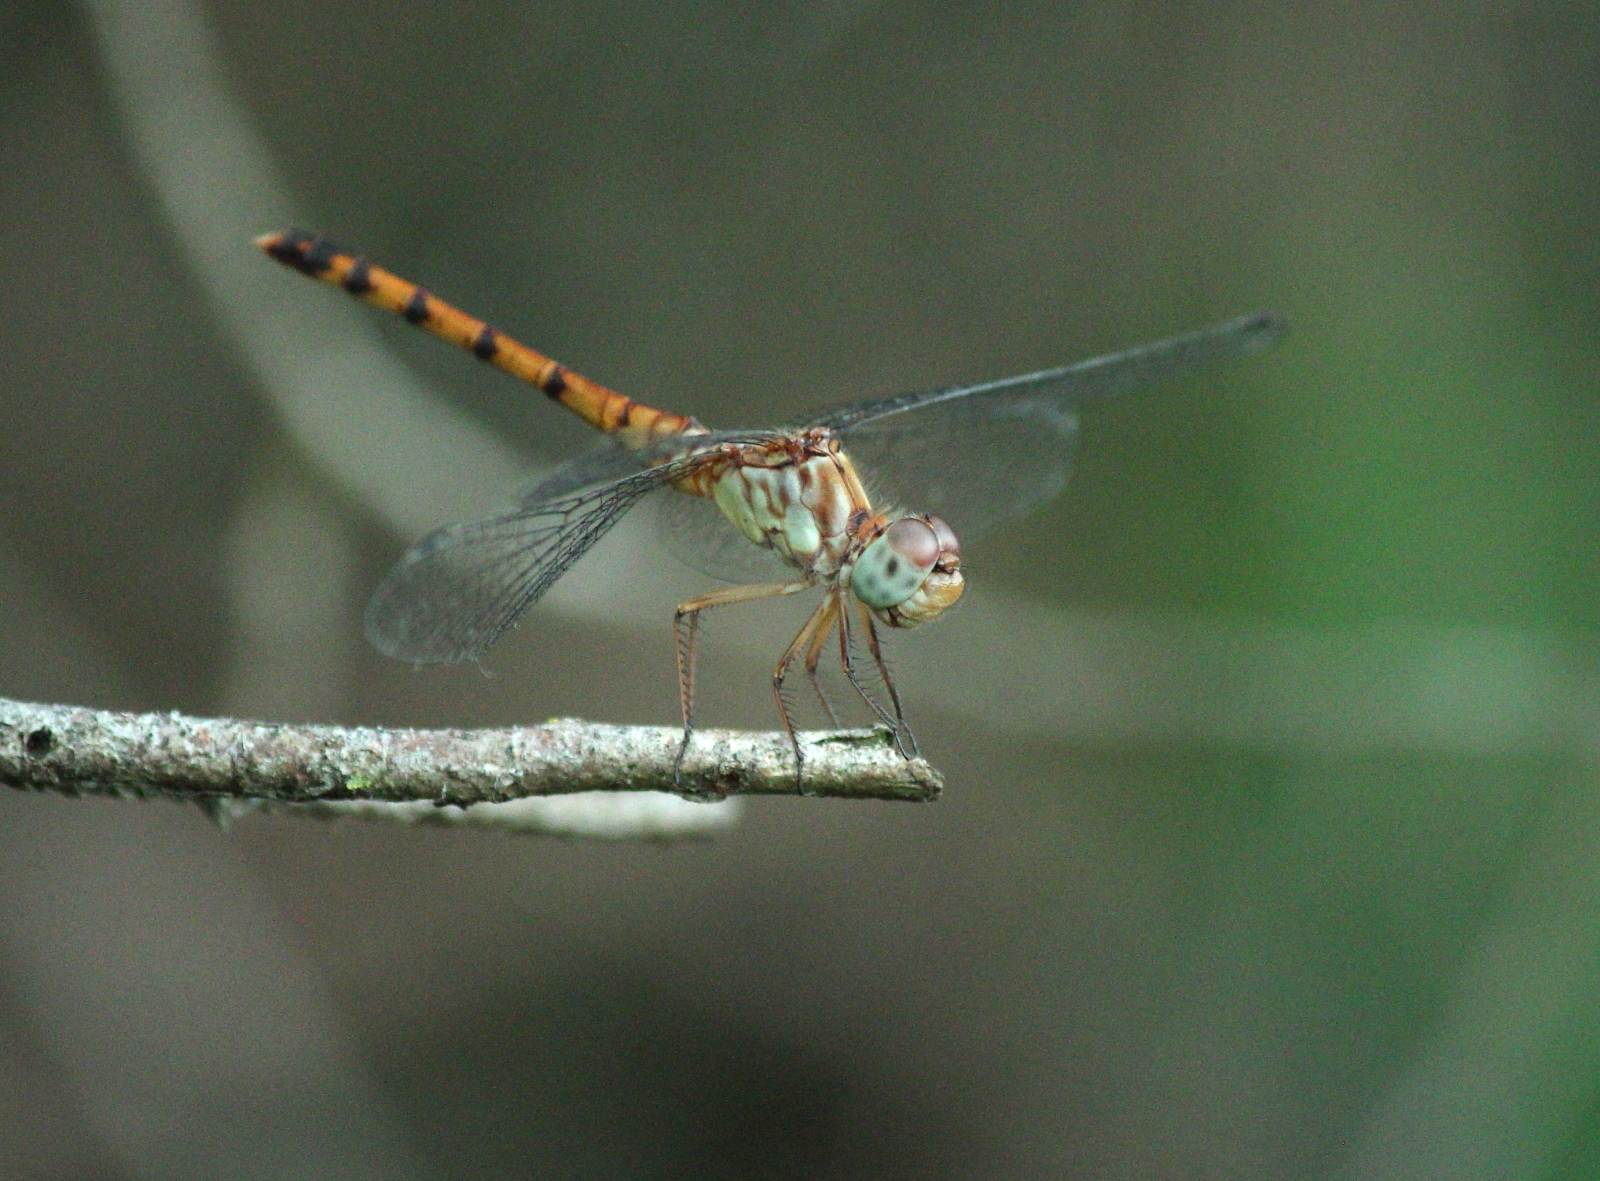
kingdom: Animalia
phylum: Arthropoda
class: Insecta
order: Odonata
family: Libellulidae
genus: Sympetrum
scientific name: Sympetrum ambiguum
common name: Blue-faced meadowhawk
